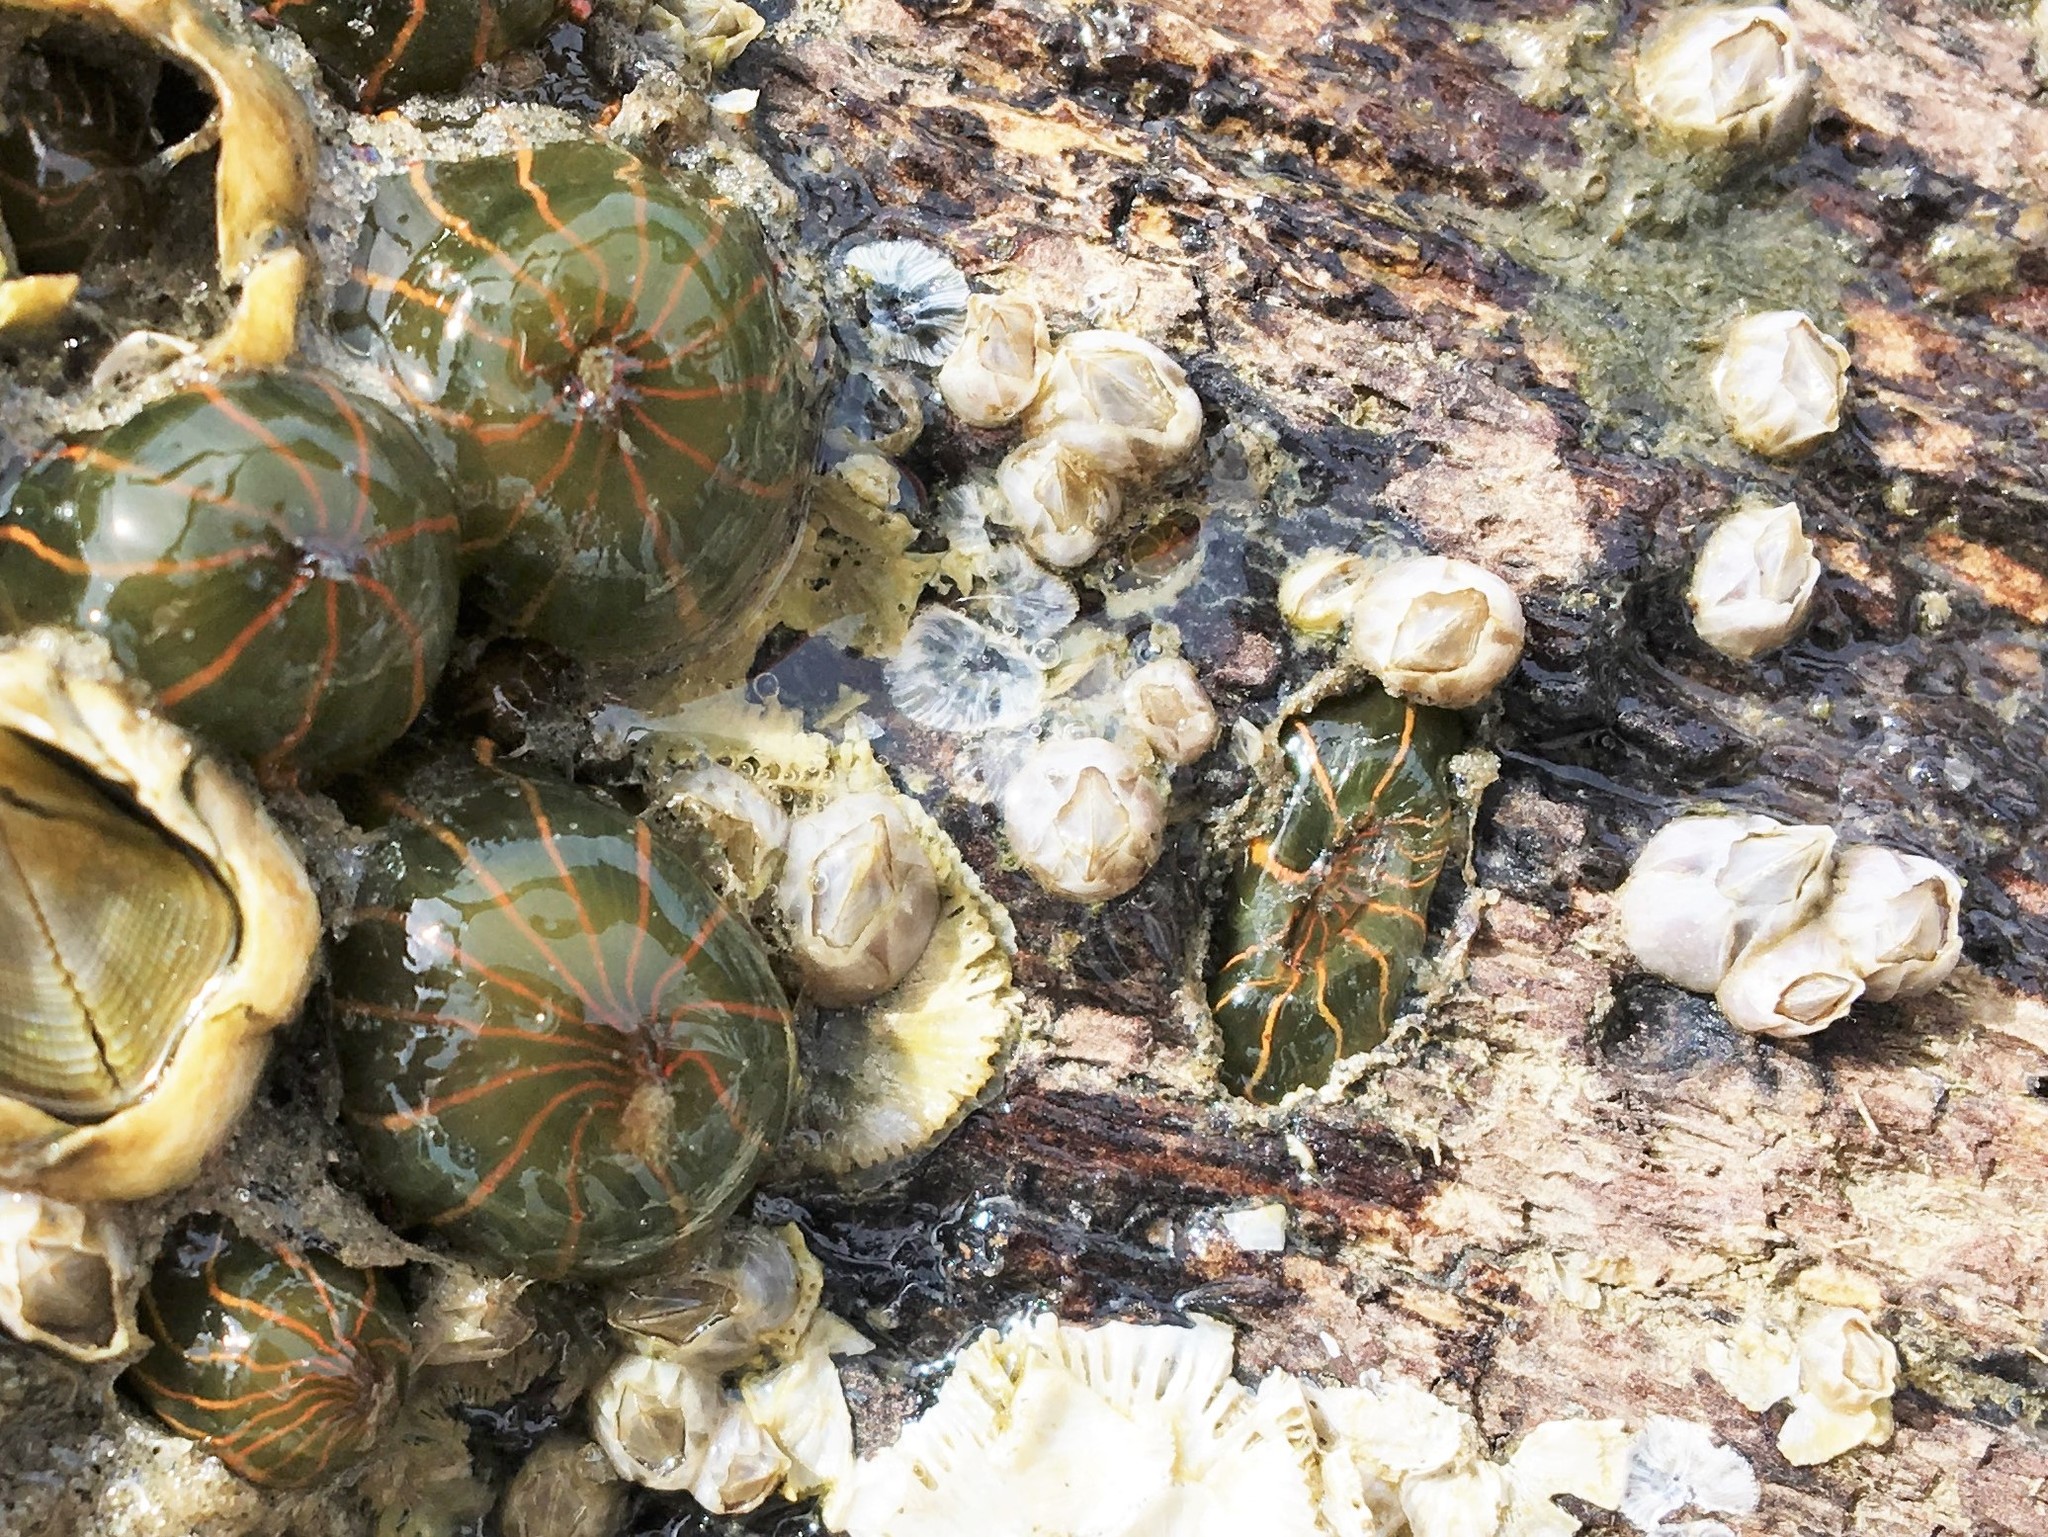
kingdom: Animalia
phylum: Cnidaria
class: Anthozoa
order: Actiniaria
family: Diadumenidae
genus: Diadumene
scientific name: Diadumene lineata
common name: Orange-striped anemone
